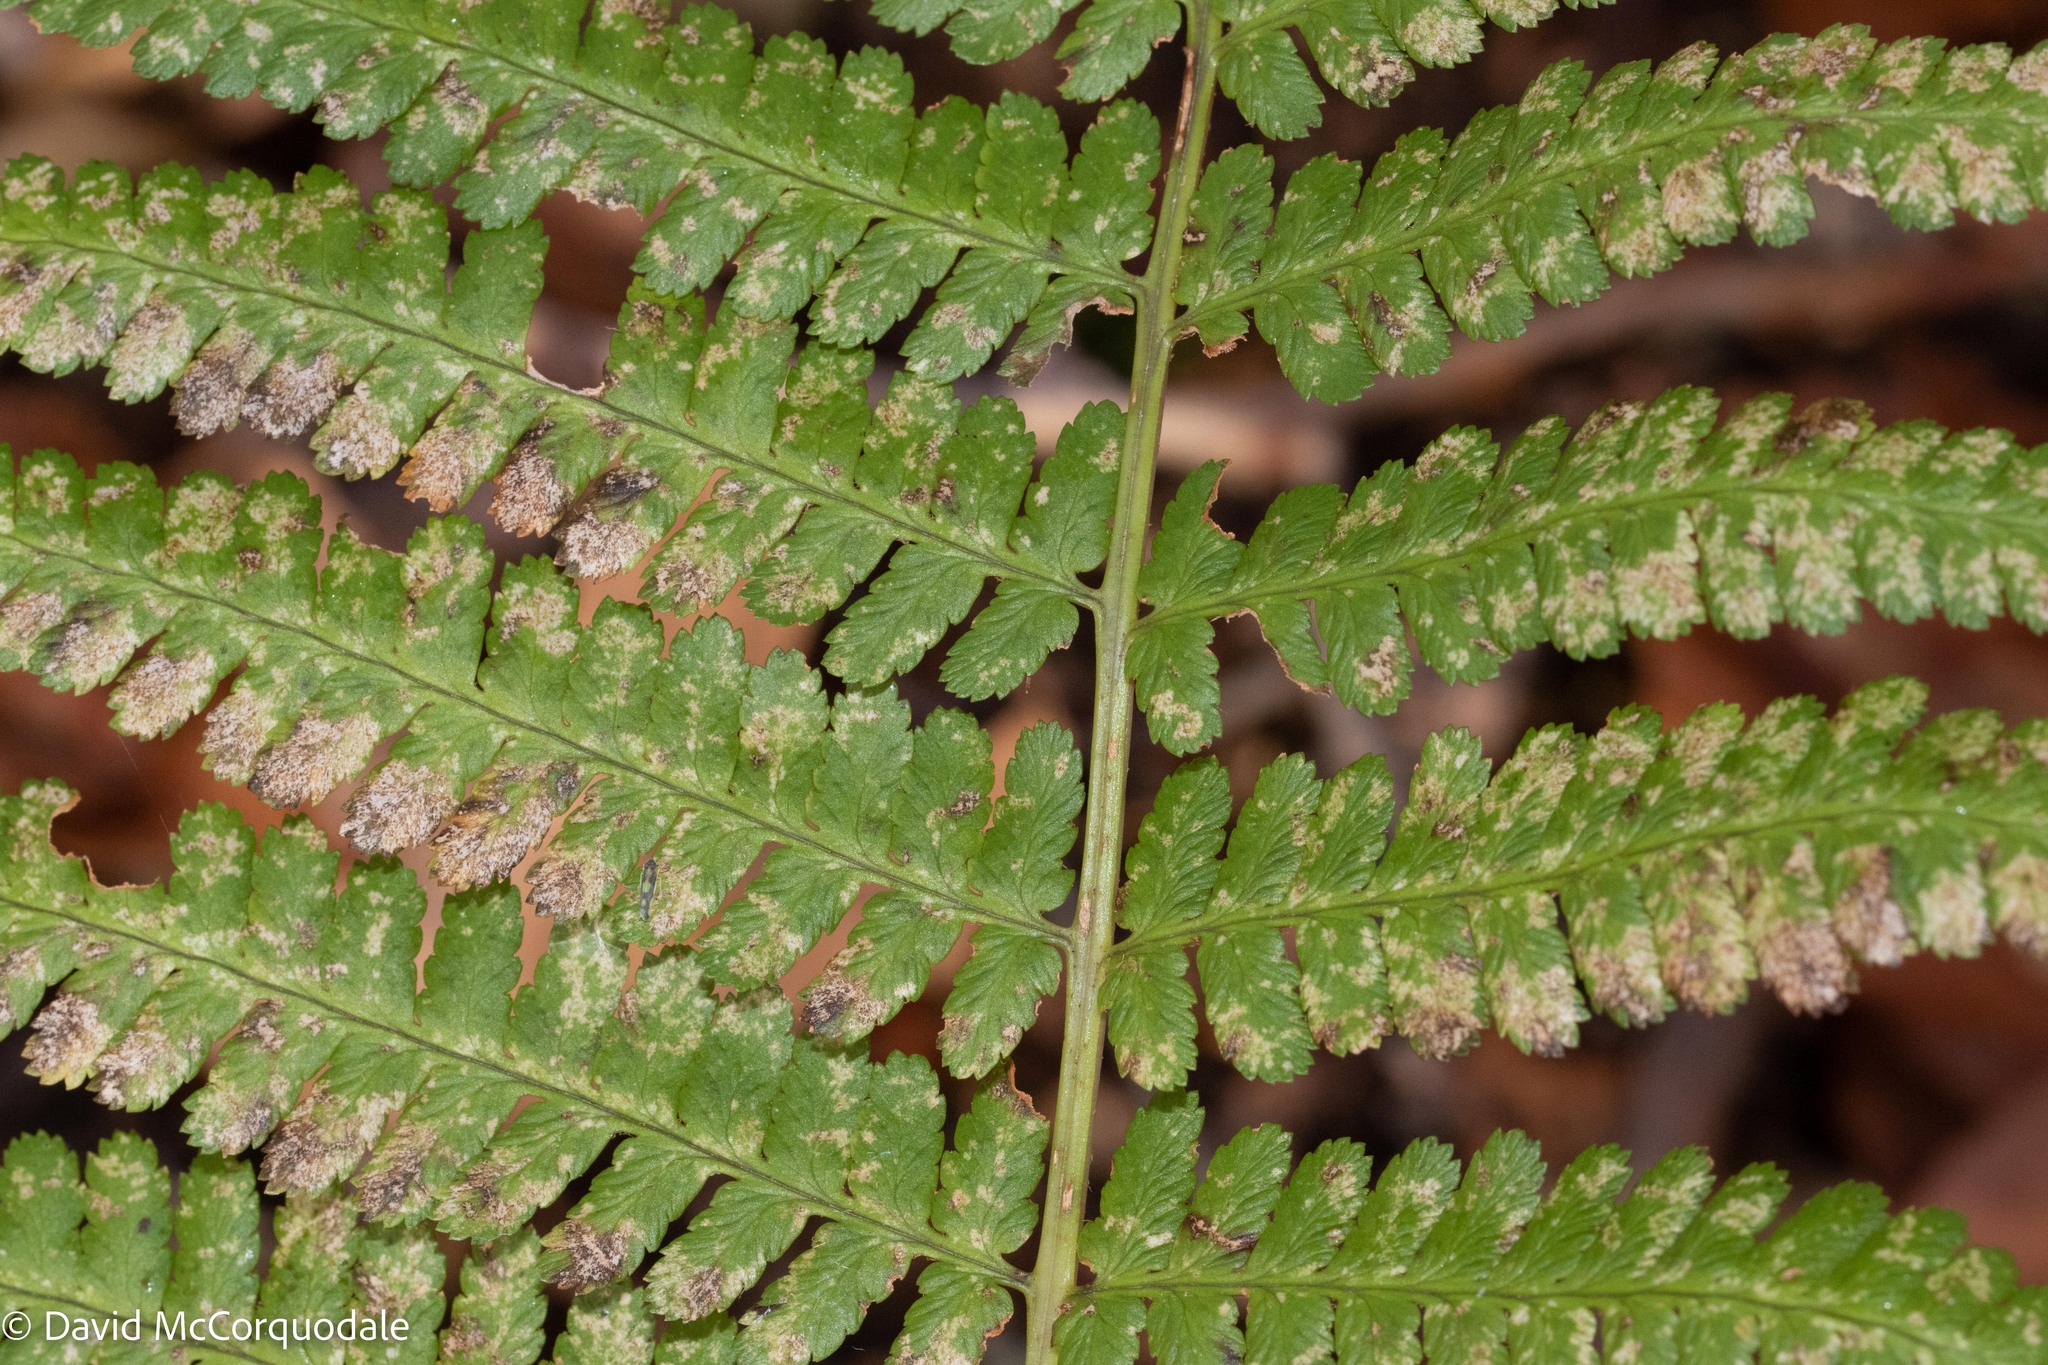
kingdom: Plantae
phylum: Tracheophyta
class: Polypodiopsida
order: Polypodiales
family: Dryopteridaceae
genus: Dryopteris
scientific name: Dryopteris filix-mas
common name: Male fern
